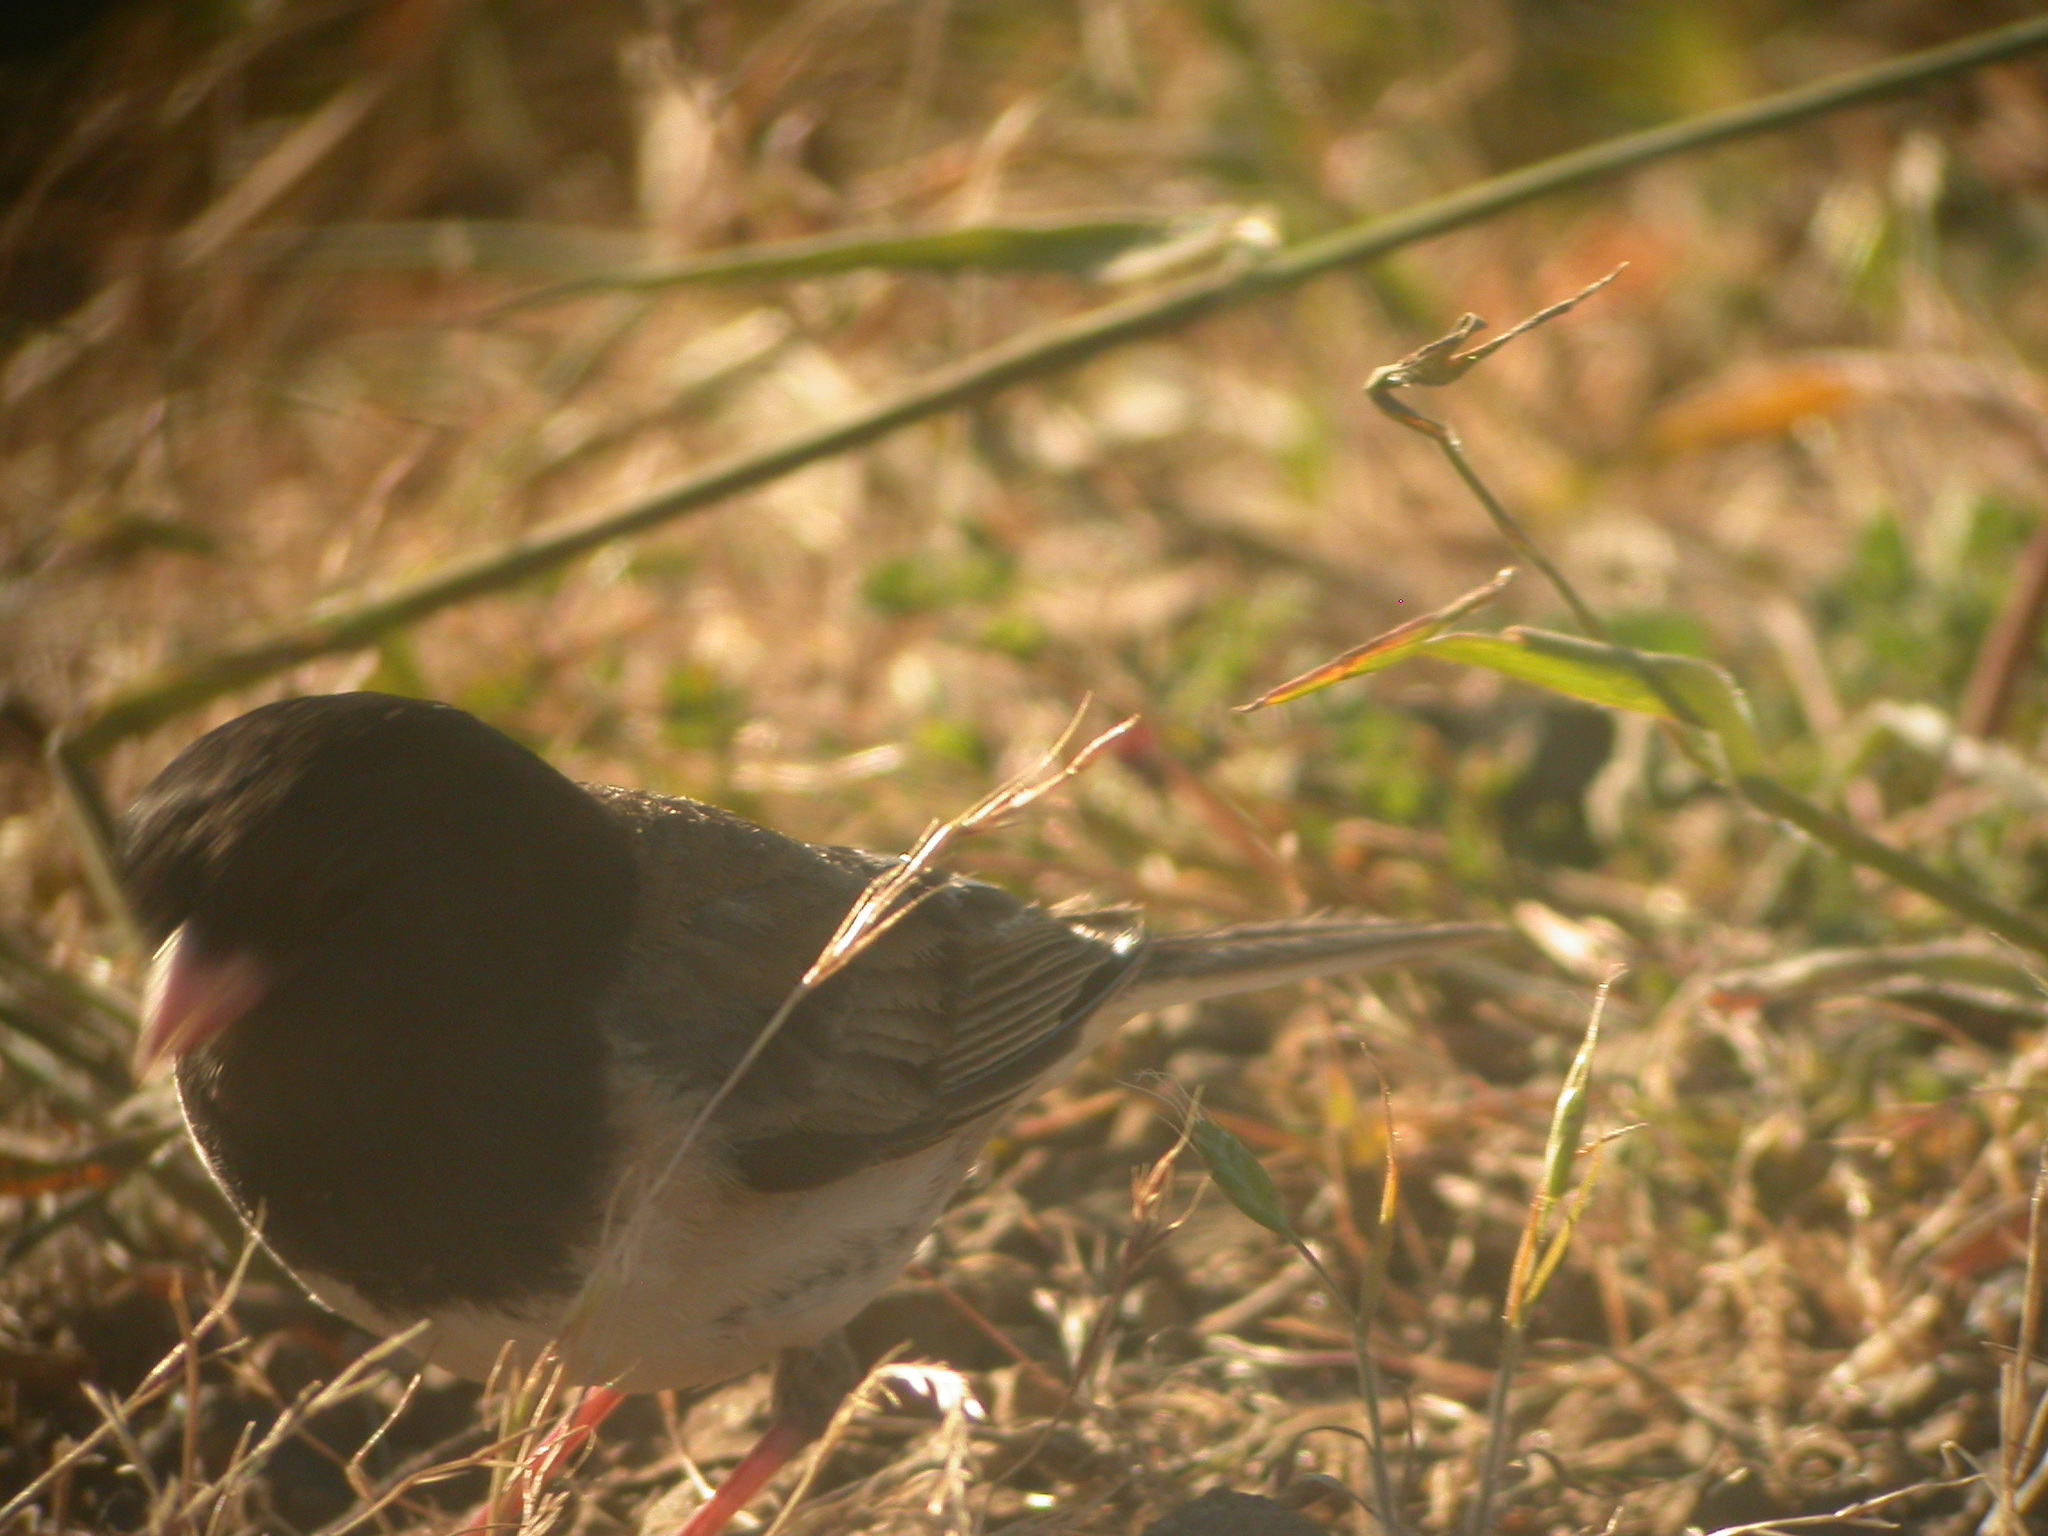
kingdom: Animalia
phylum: Chordata
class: Aves
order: Passeriformes
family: Passerellidae
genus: Junco
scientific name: Junco hyemalis
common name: Dark-eyed junco
